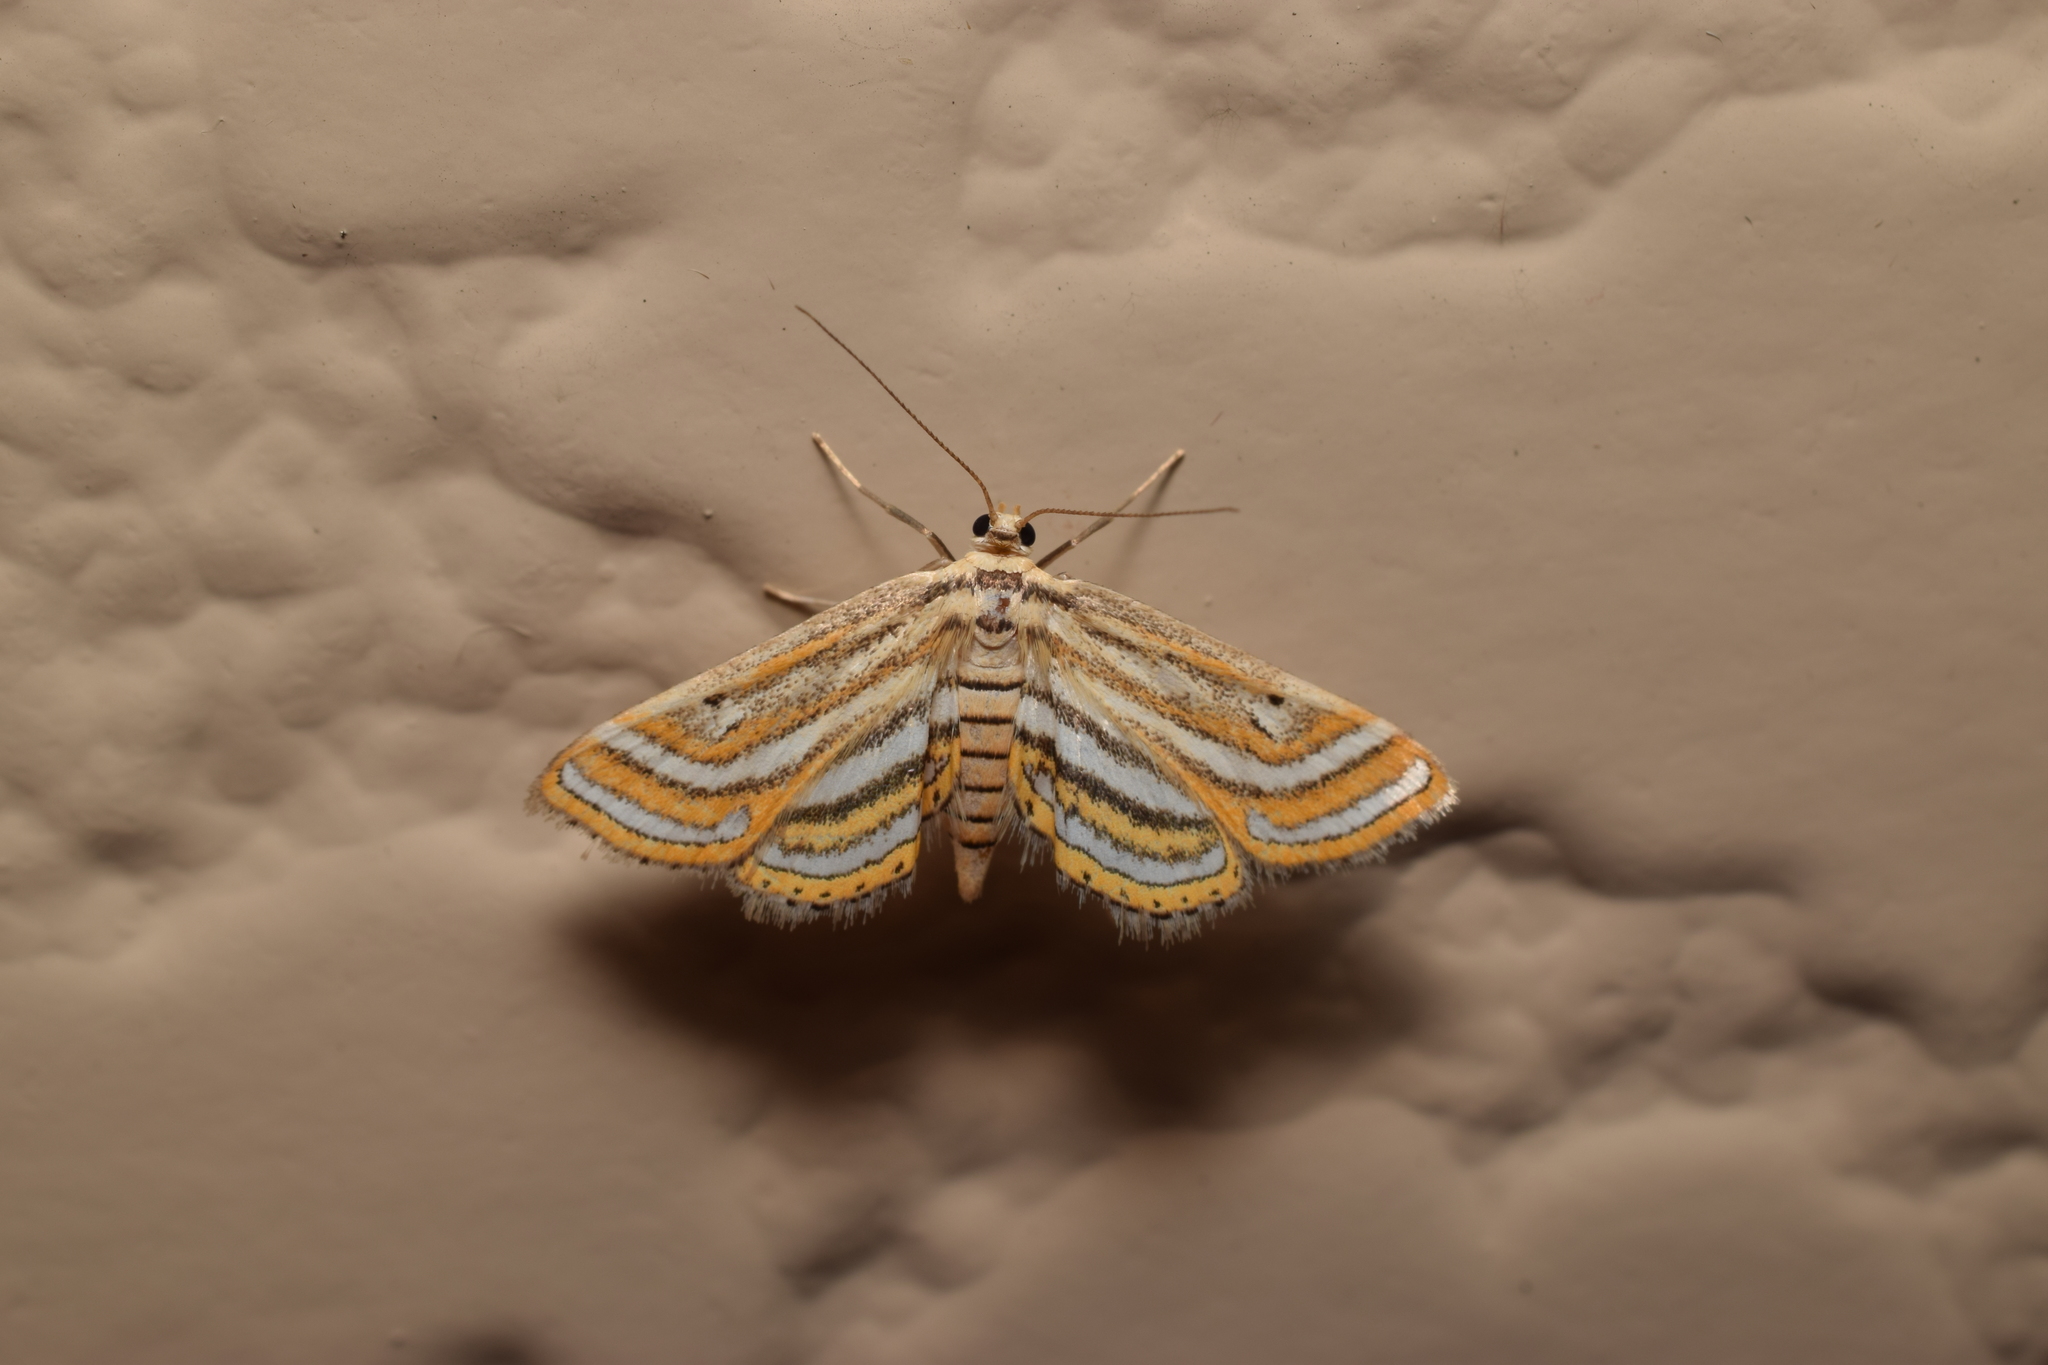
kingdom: Animalia
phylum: Arthropoda
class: Insecta
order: Lepidoptera
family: Crambidae
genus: Parapoynx
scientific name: Parapoynx vittalis
